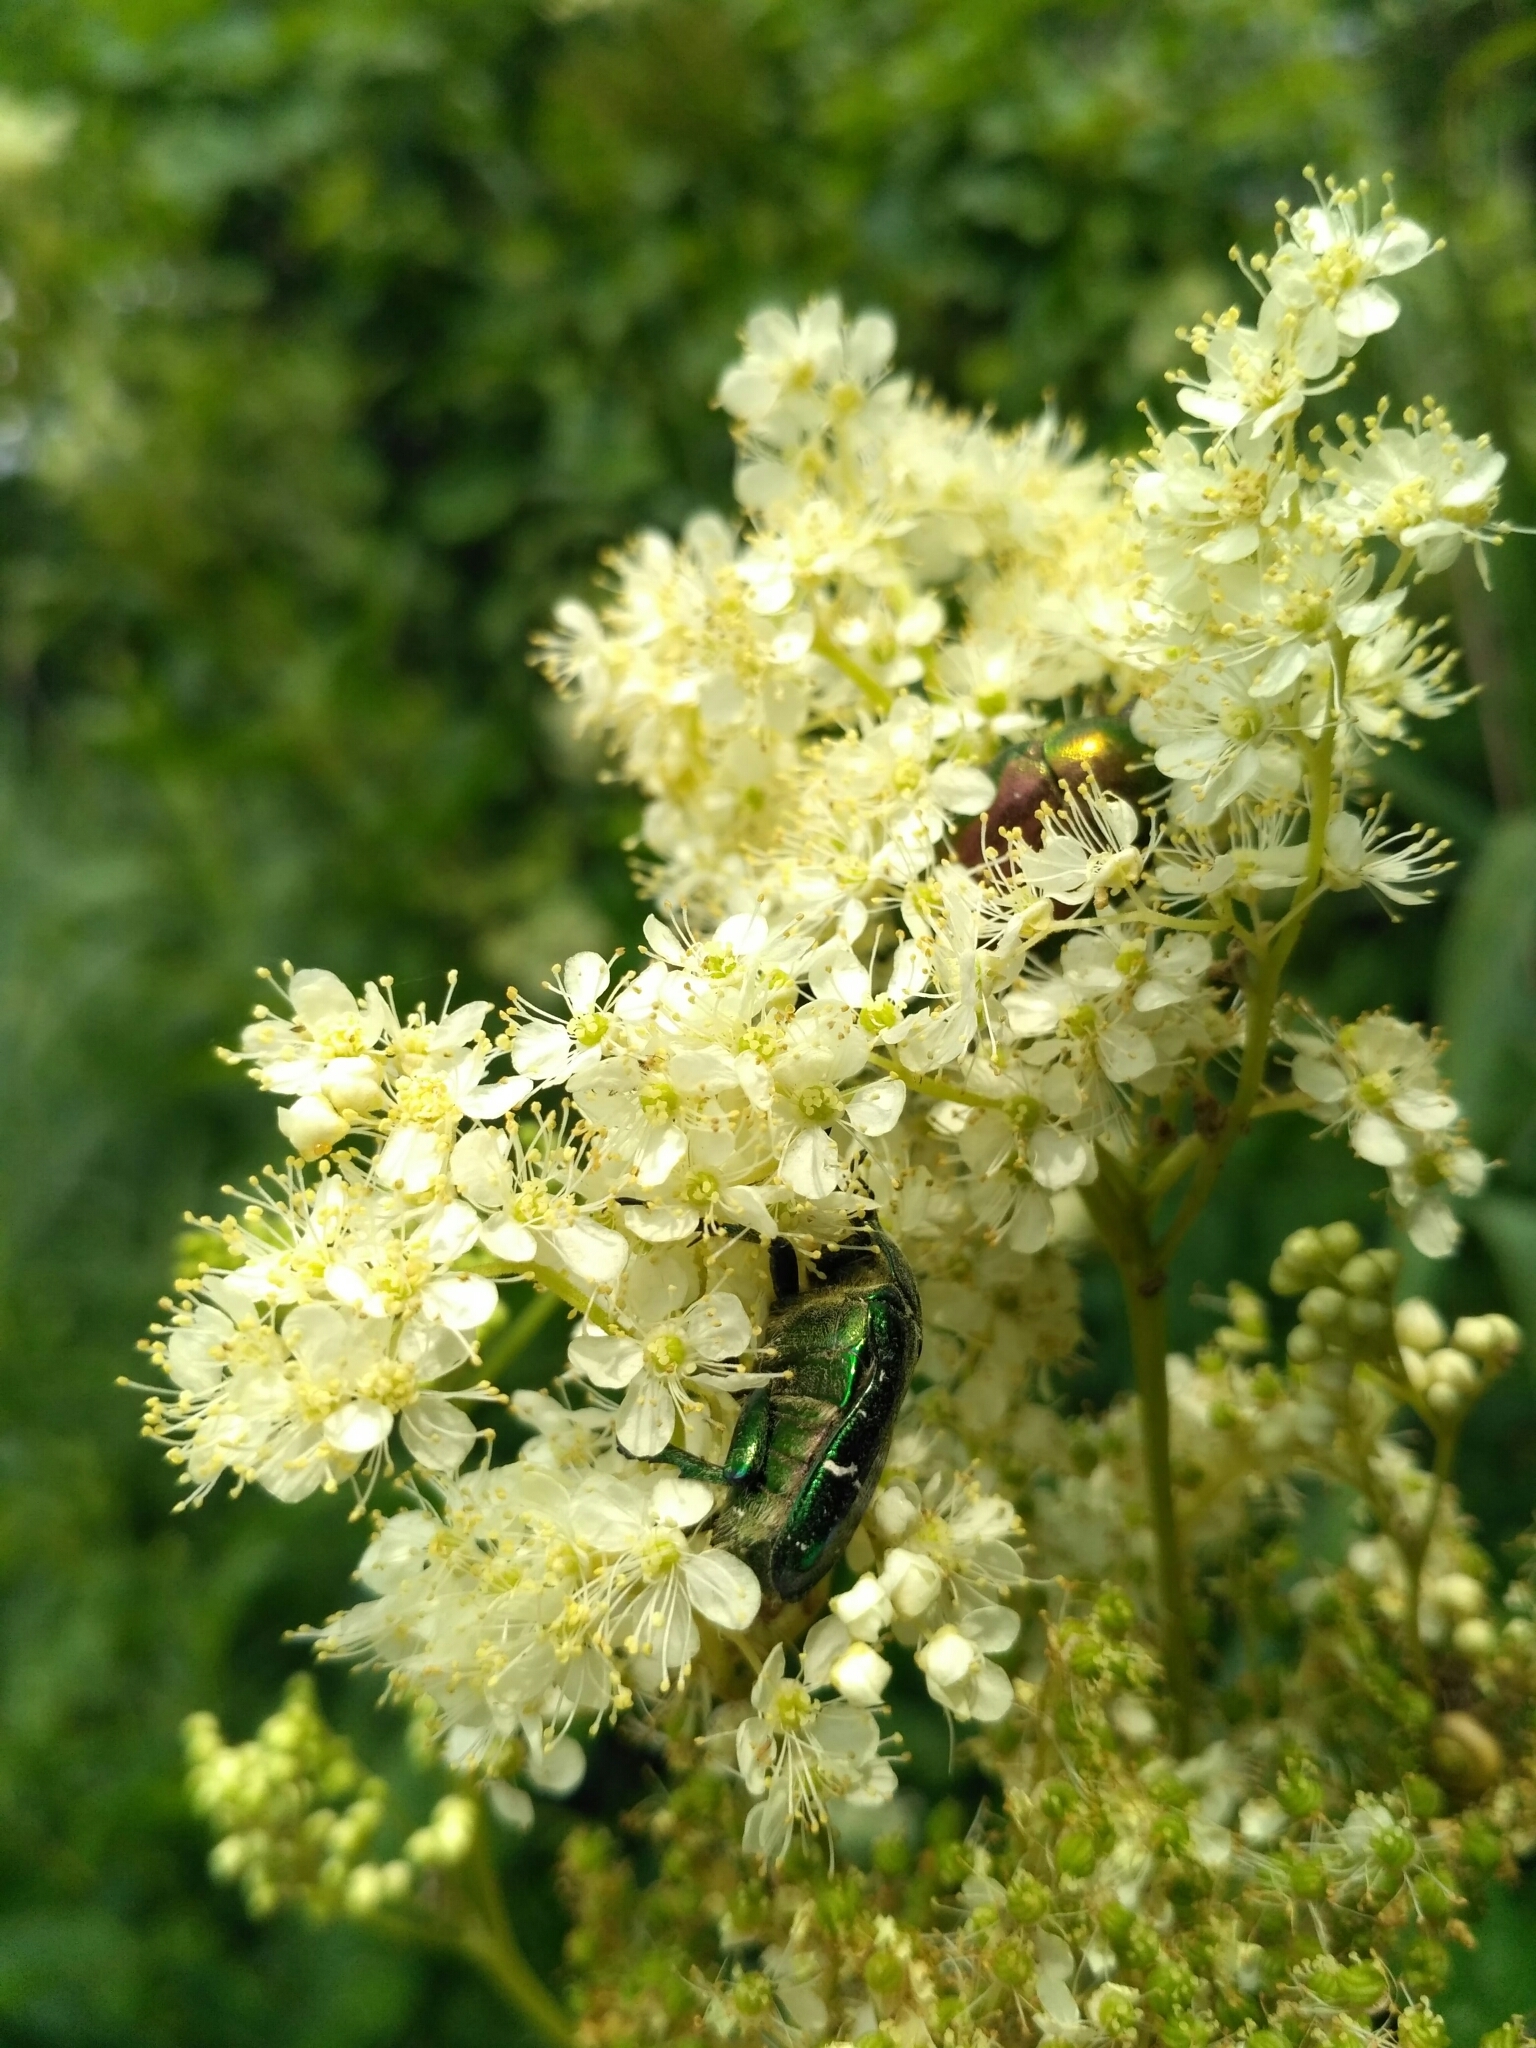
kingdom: Animalia
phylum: Arthropoda
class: Insecta
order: Coleoptera
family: Scarabaeidae
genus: Cetonia
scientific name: Cetonia aurata
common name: Rose chafer
